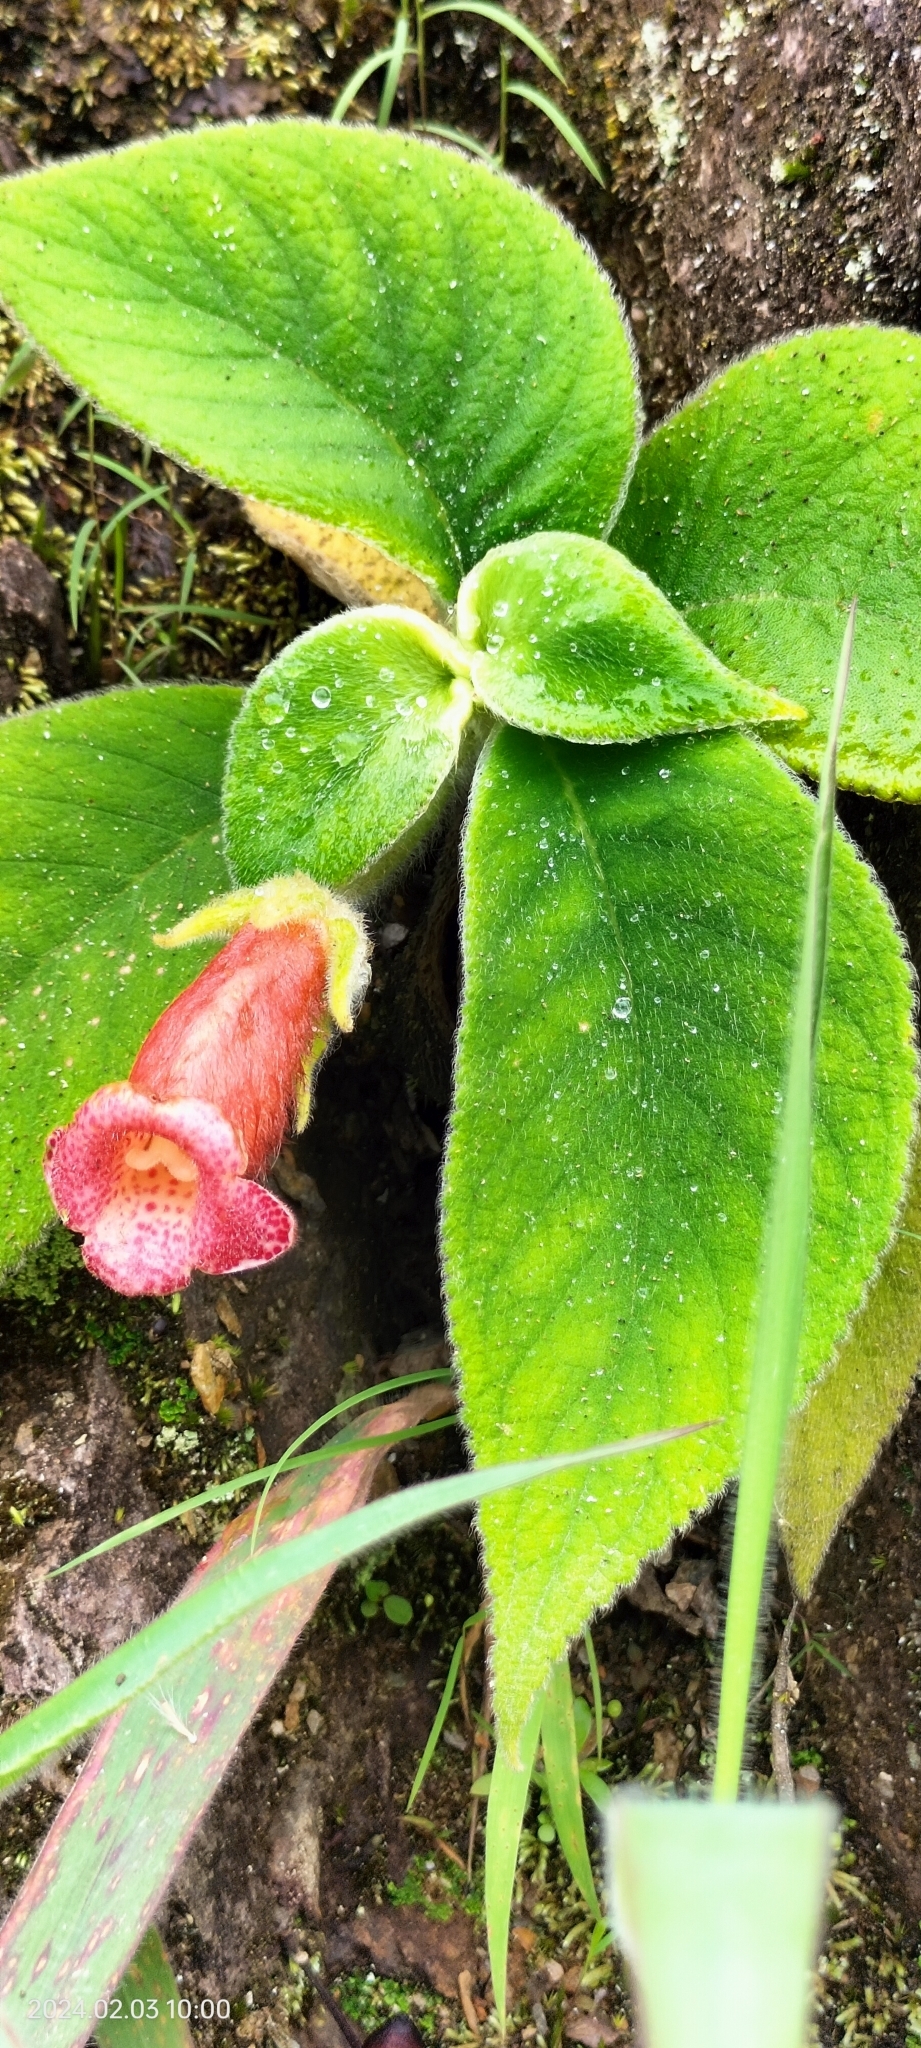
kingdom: Plantae
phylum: Tracheophyta
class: Magnoliopsida
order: Lamiales
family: Gesneriaceae
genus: Kohleria
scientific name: Kohleria peruviana
